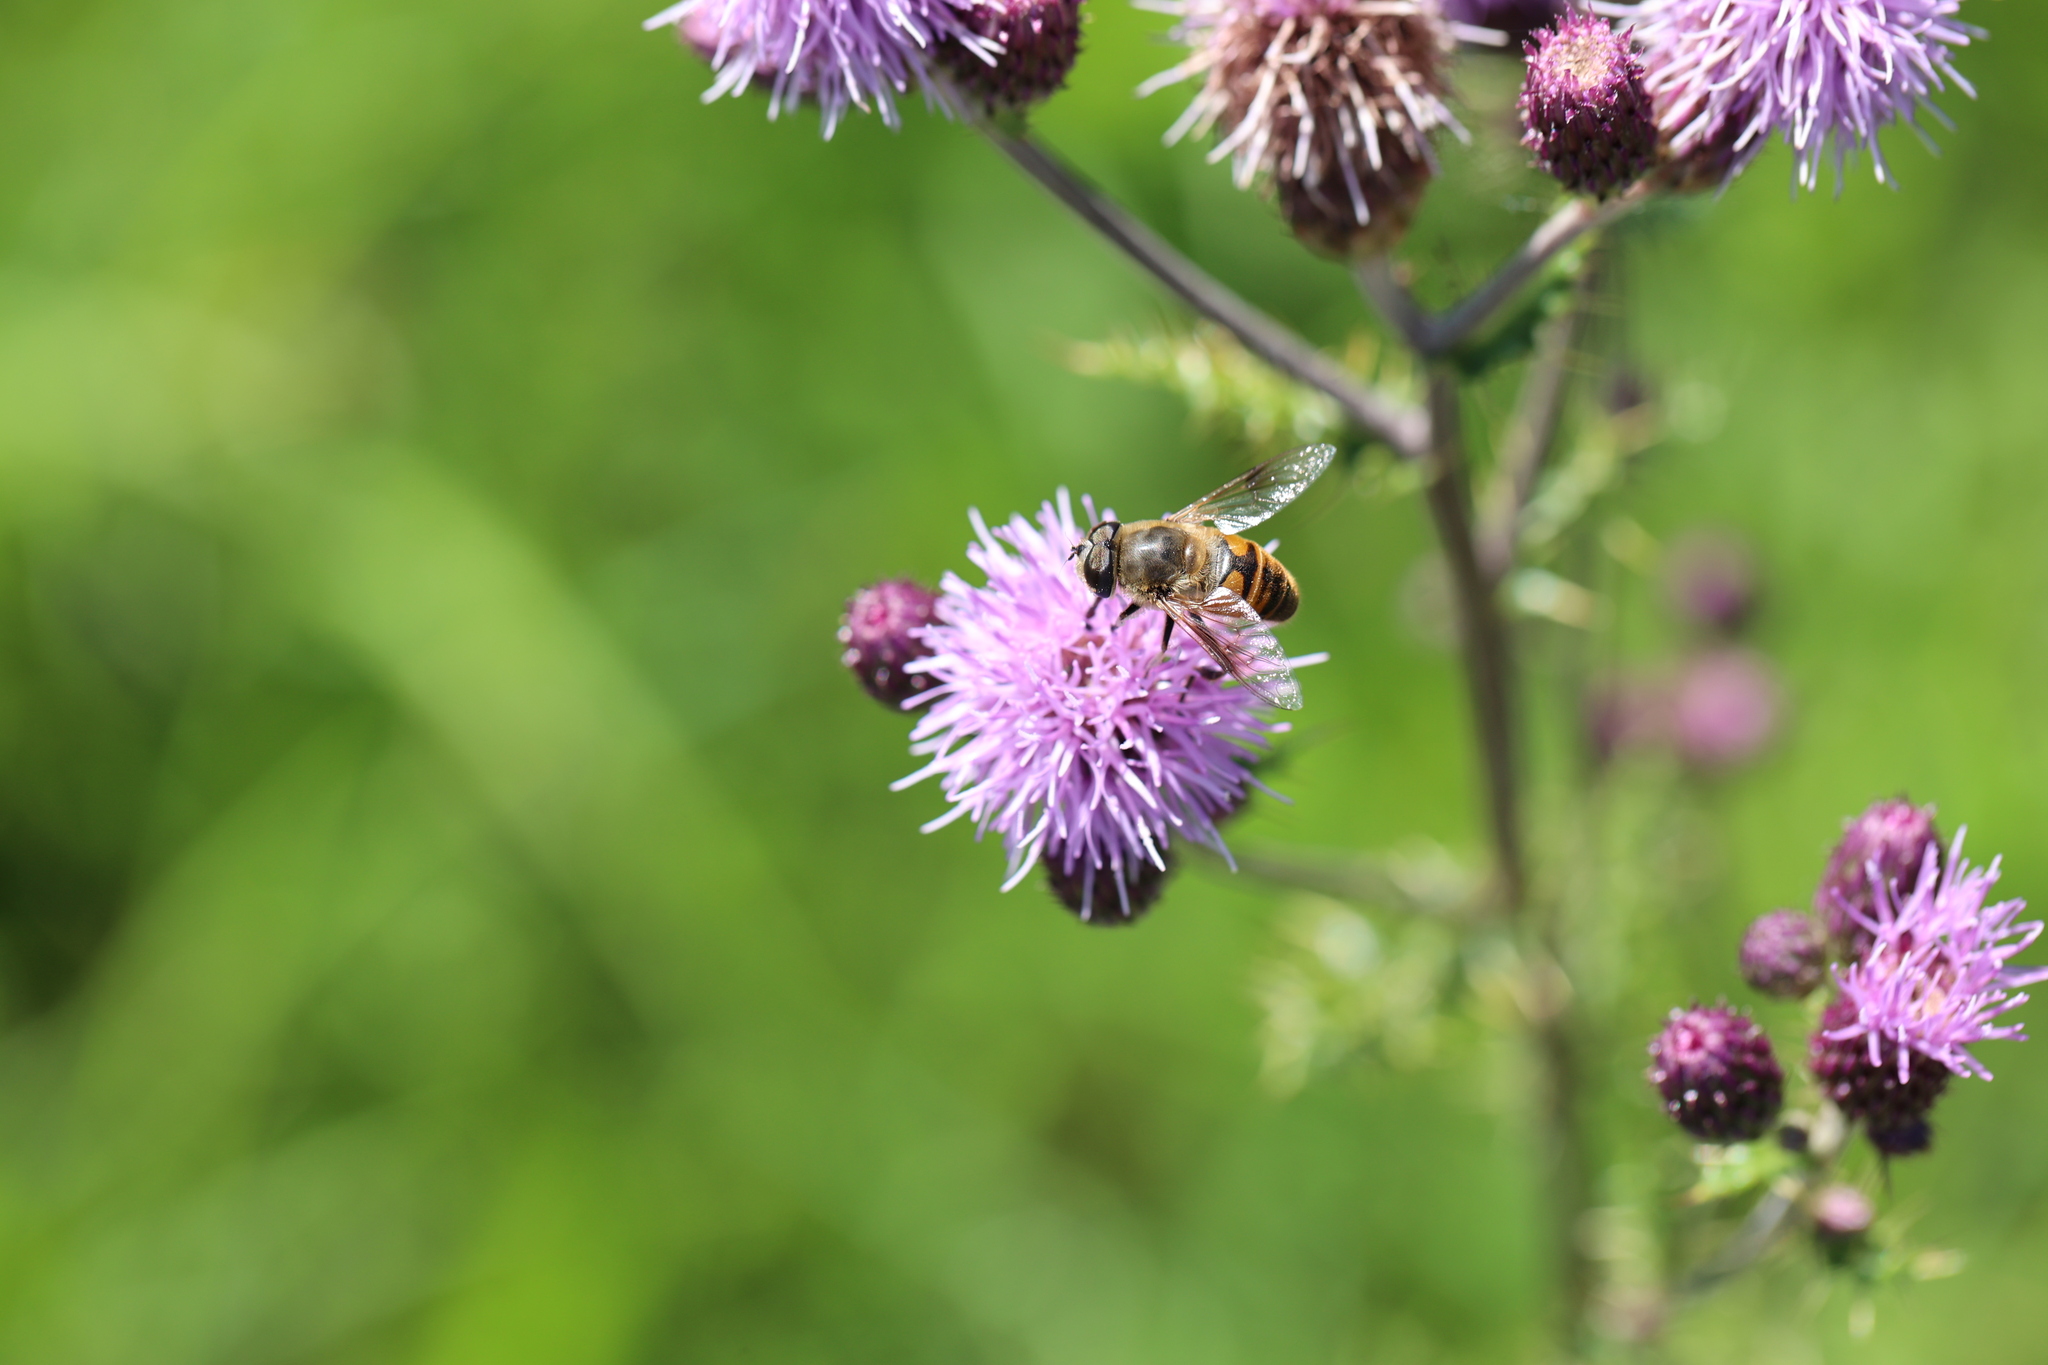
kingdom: Animalia
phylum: Arthropoda
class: Insecta
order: Diptera
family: Syrphidae
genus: Eristalis
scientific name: Eristalis tenax
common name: Drone fly
